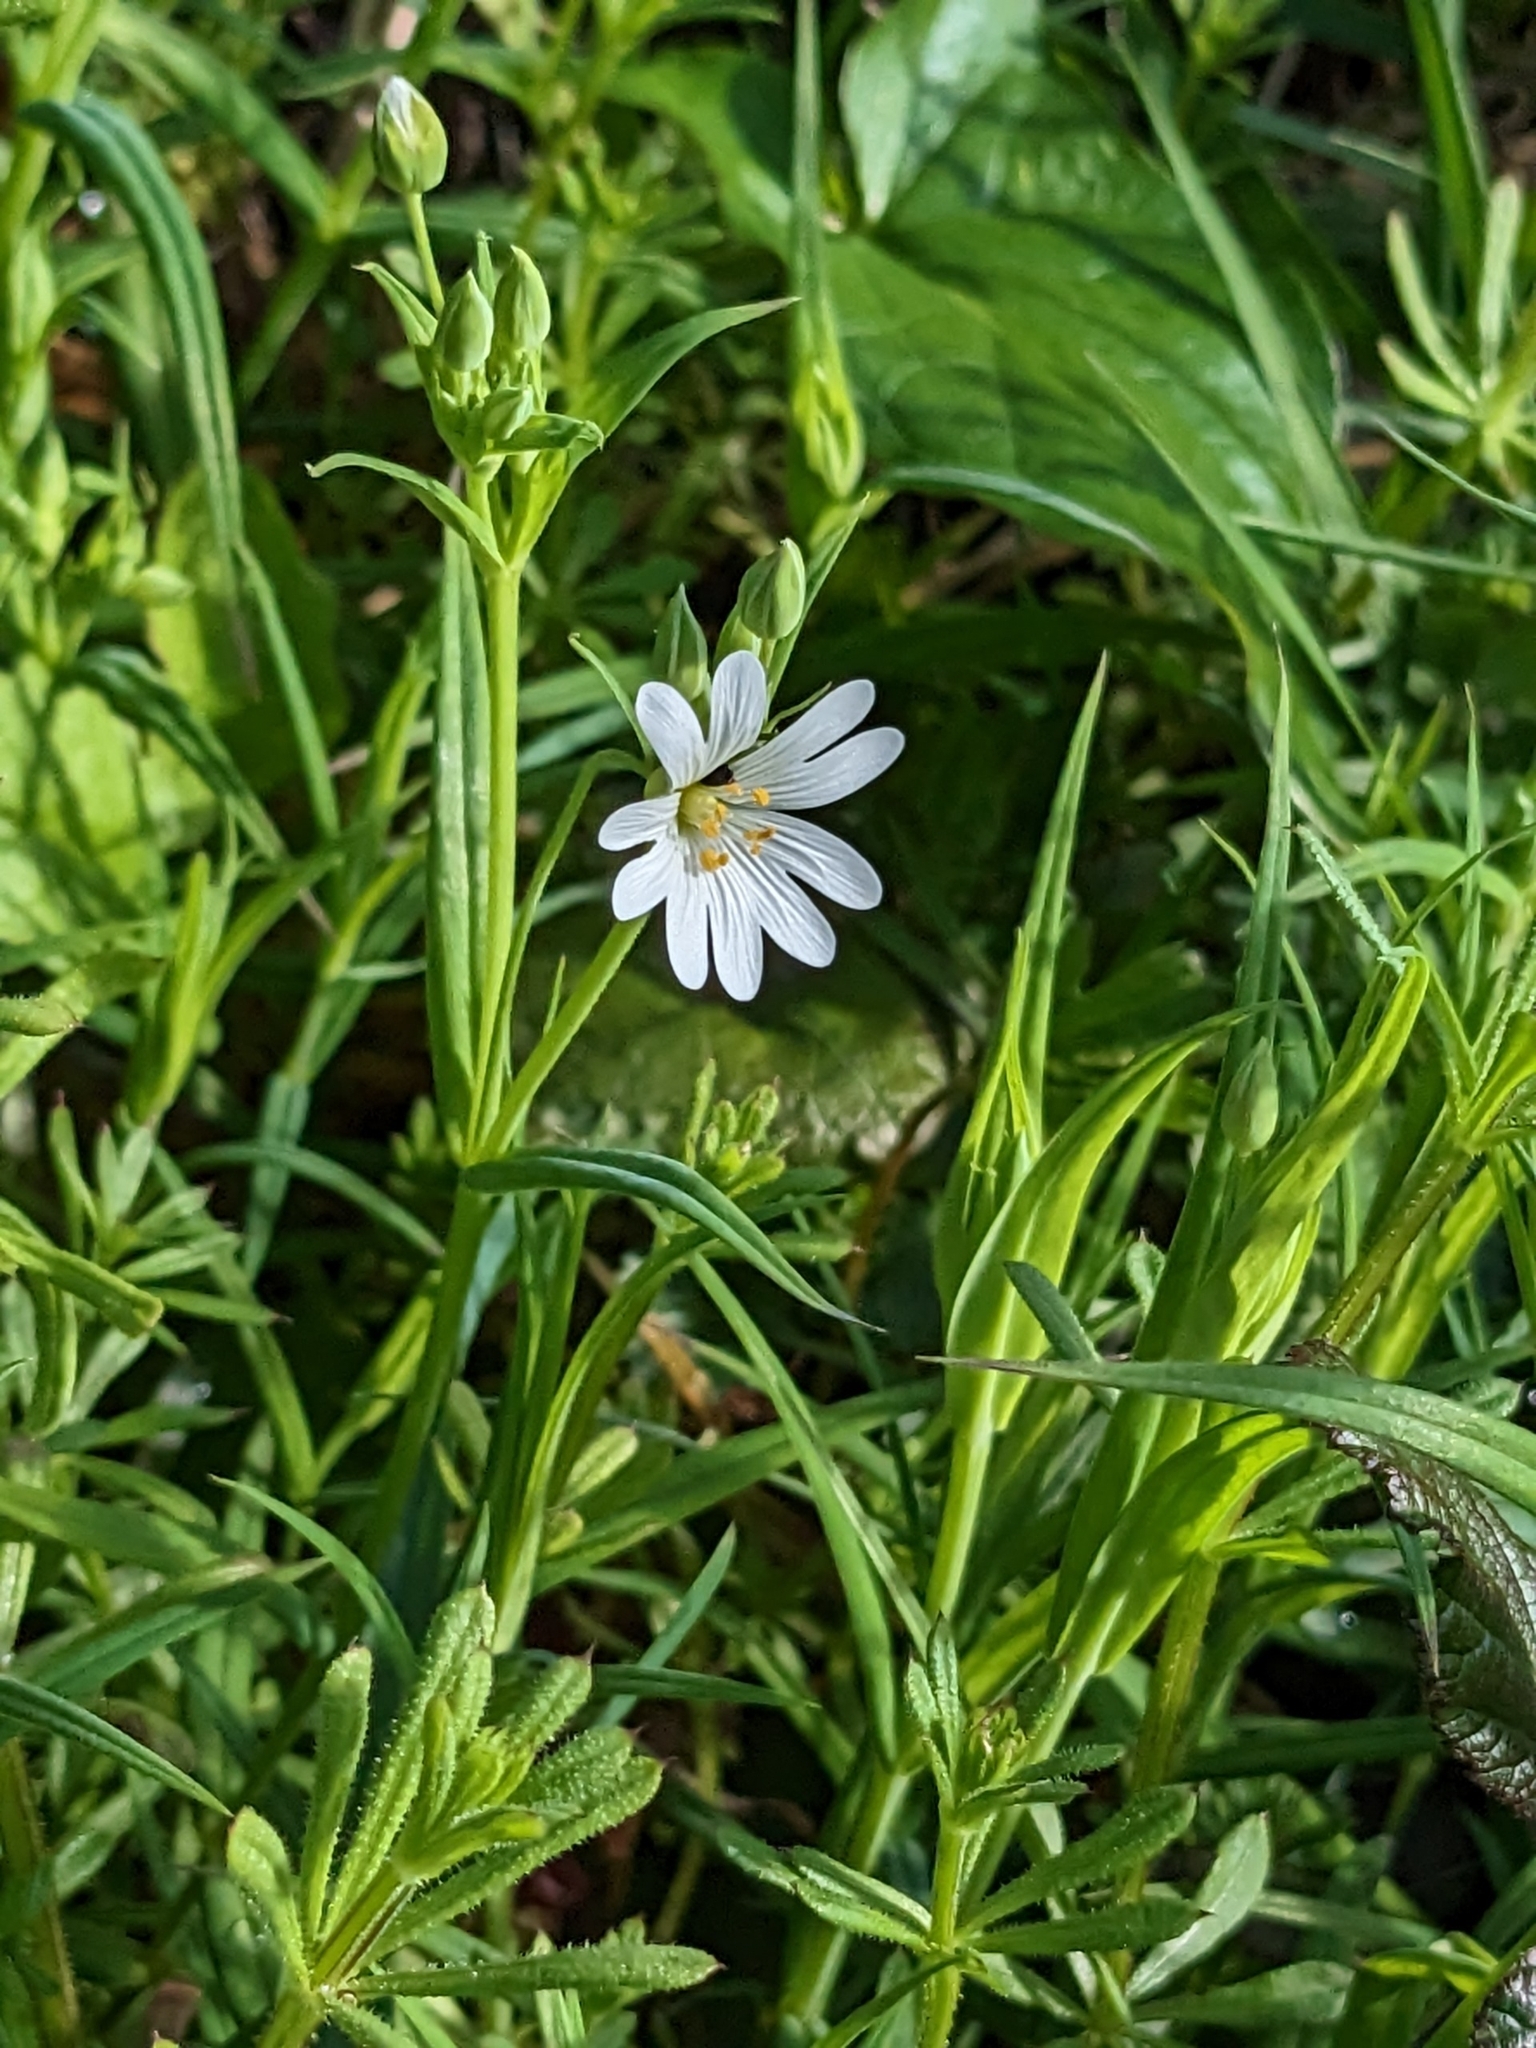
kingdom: Plantae
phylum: Tracheophyta
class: Magnoliopsida
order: Caryophyllales
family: Caryophyllaceae
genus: Rabelera
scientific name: Rabelera holostea
